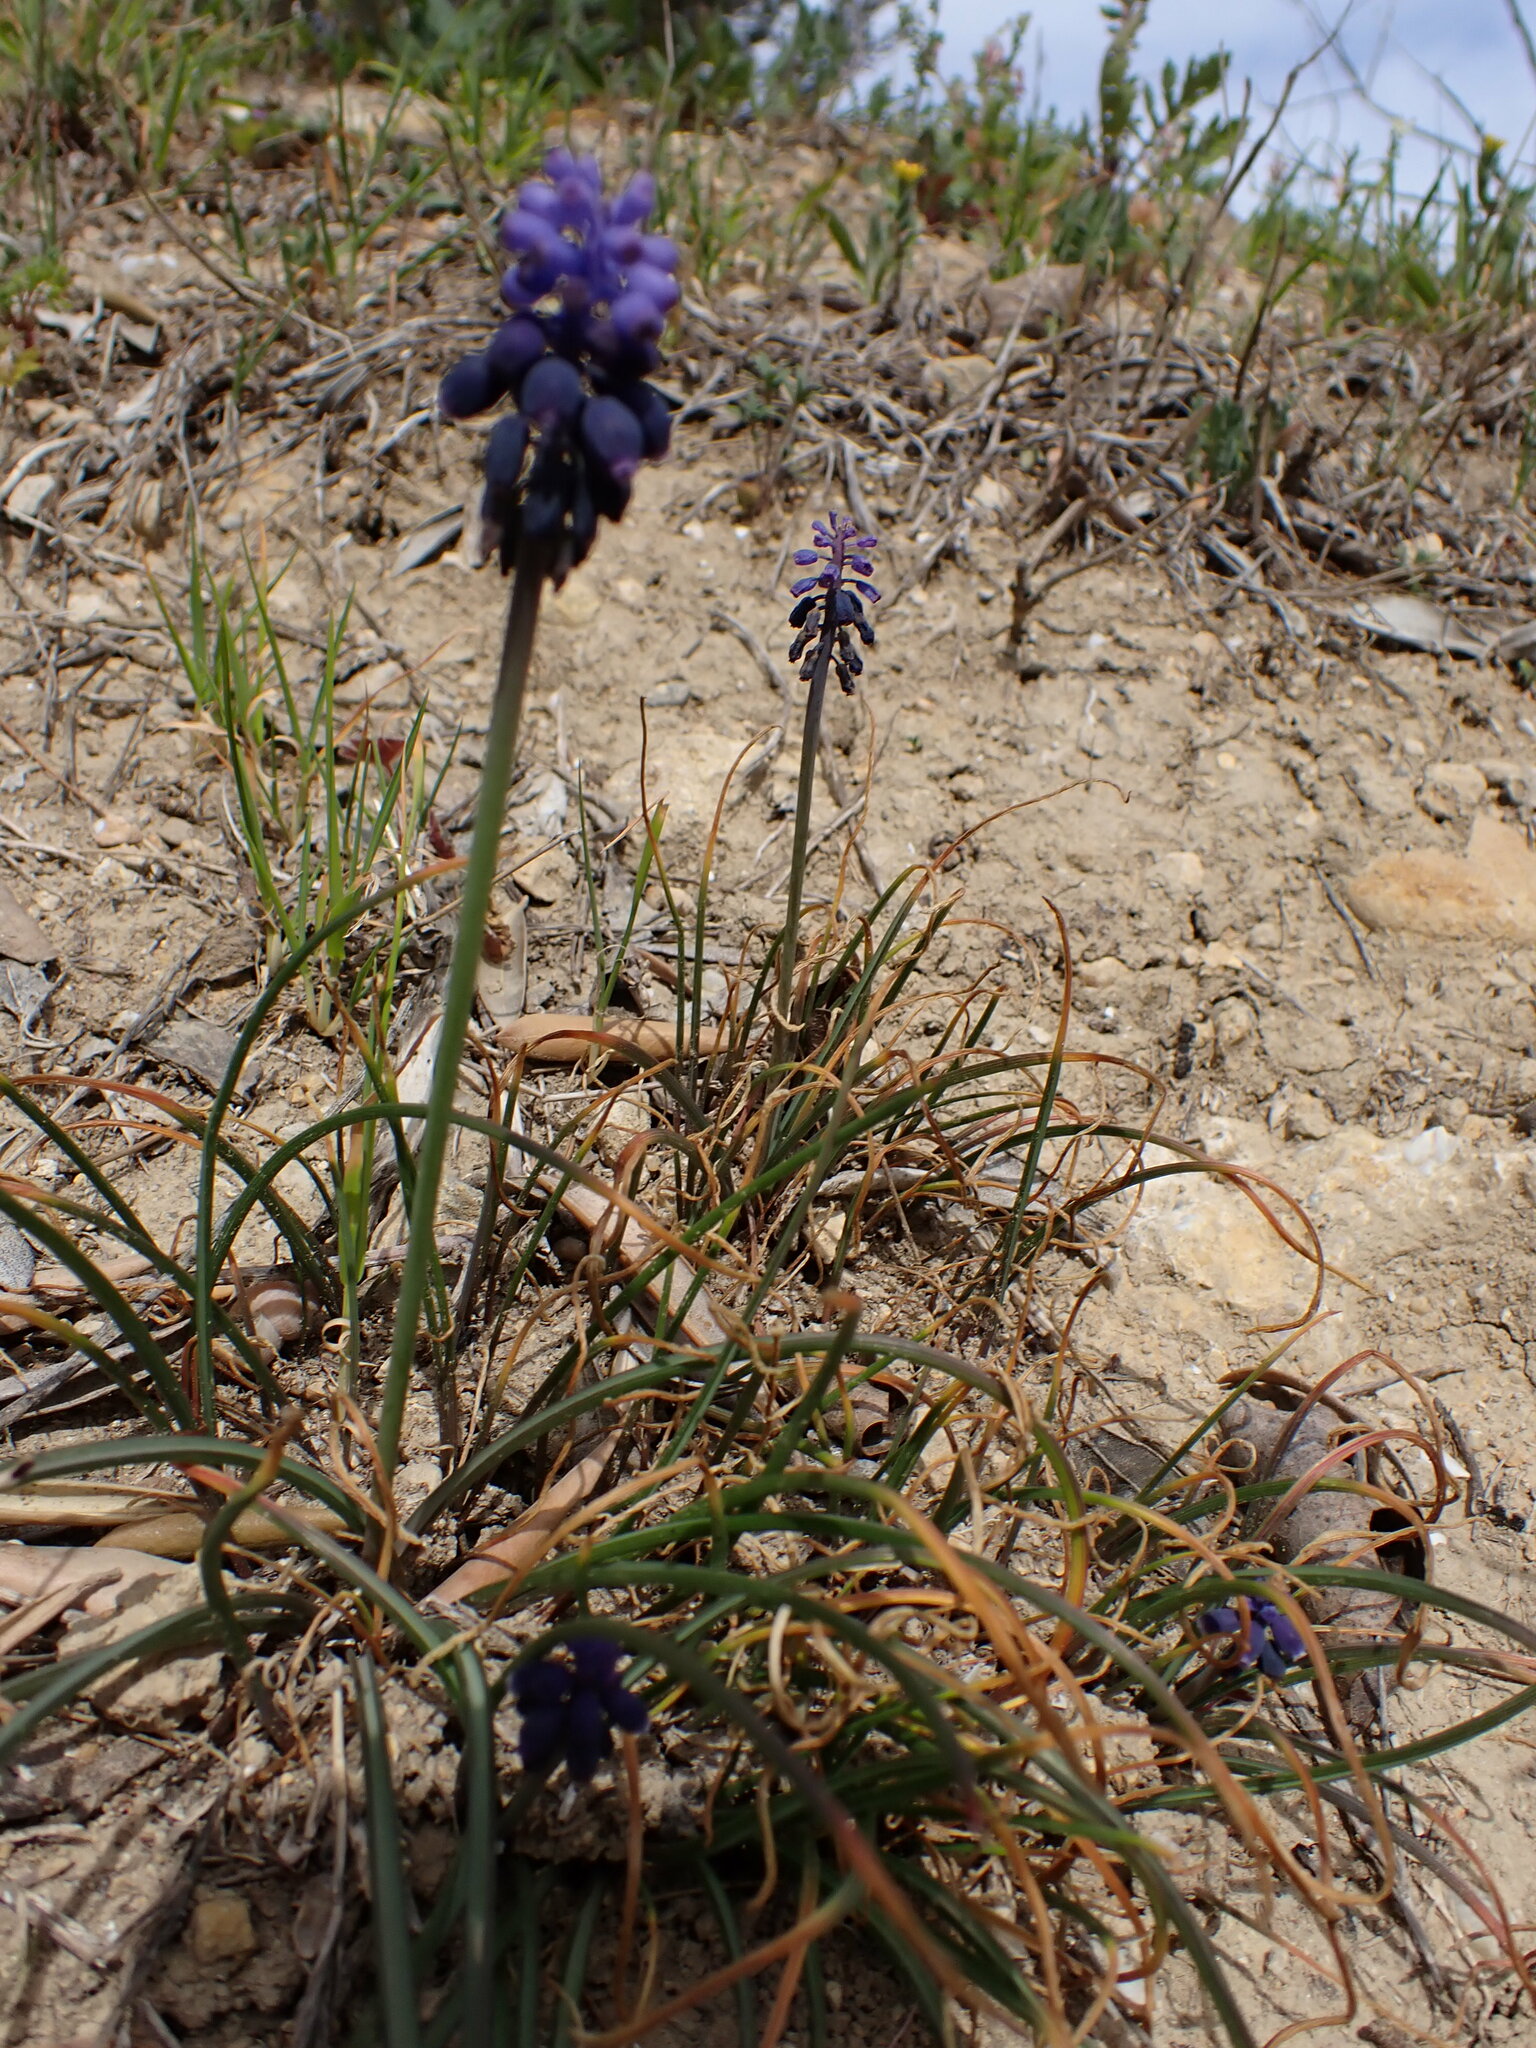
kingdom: Plantae
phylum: Tracheophyta
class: Liliopsida
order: Asparagales
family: Asparagaceae
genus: Muscari
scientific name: Muscari neglectum
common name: Grape-hyacinth
